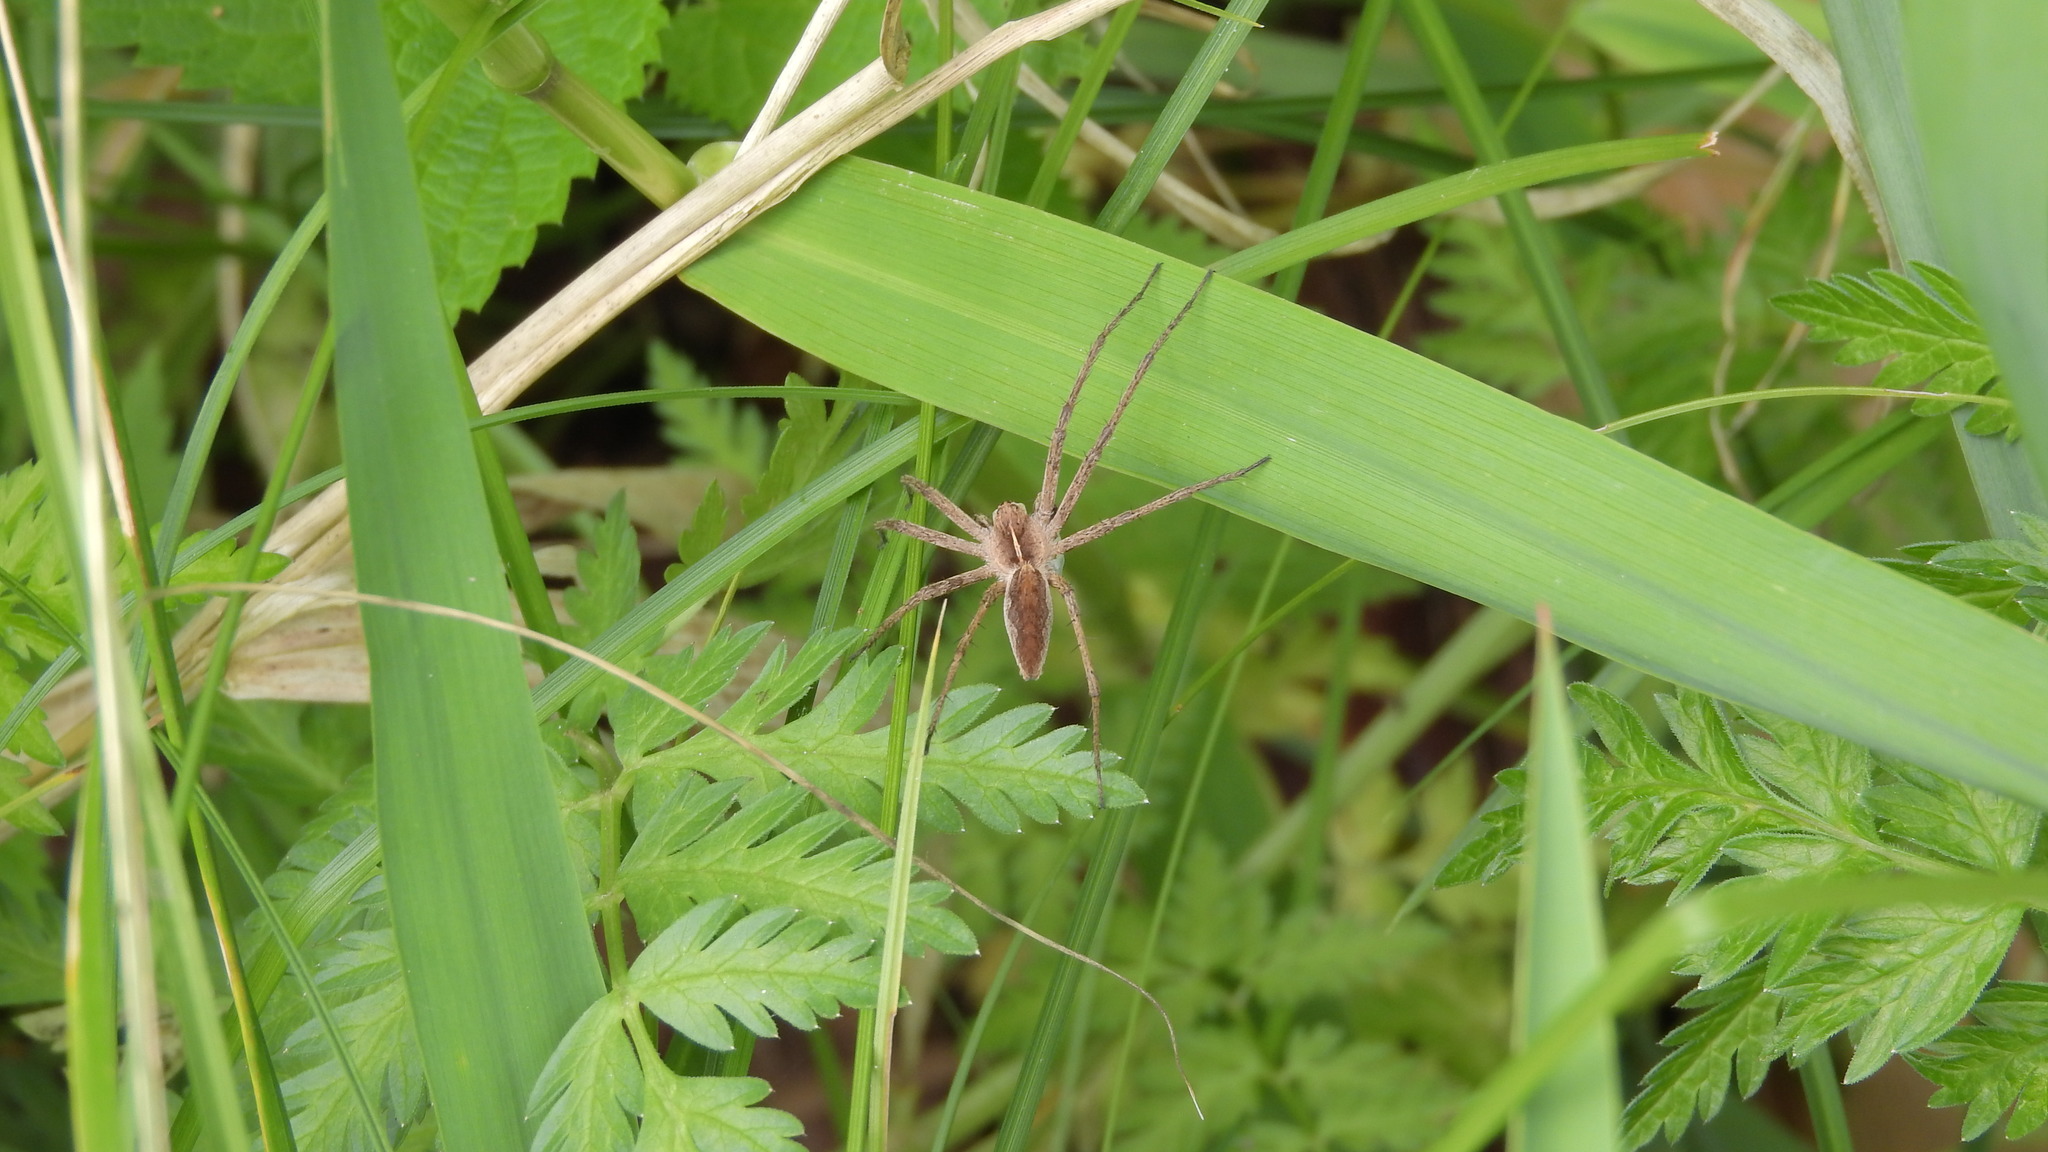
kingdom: Animalia
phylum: Arthropoda
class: Arachnida
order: Araneae
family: Pisauridae
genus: Pisaura
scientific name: Pisaura mirabilis
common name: Tent spider
